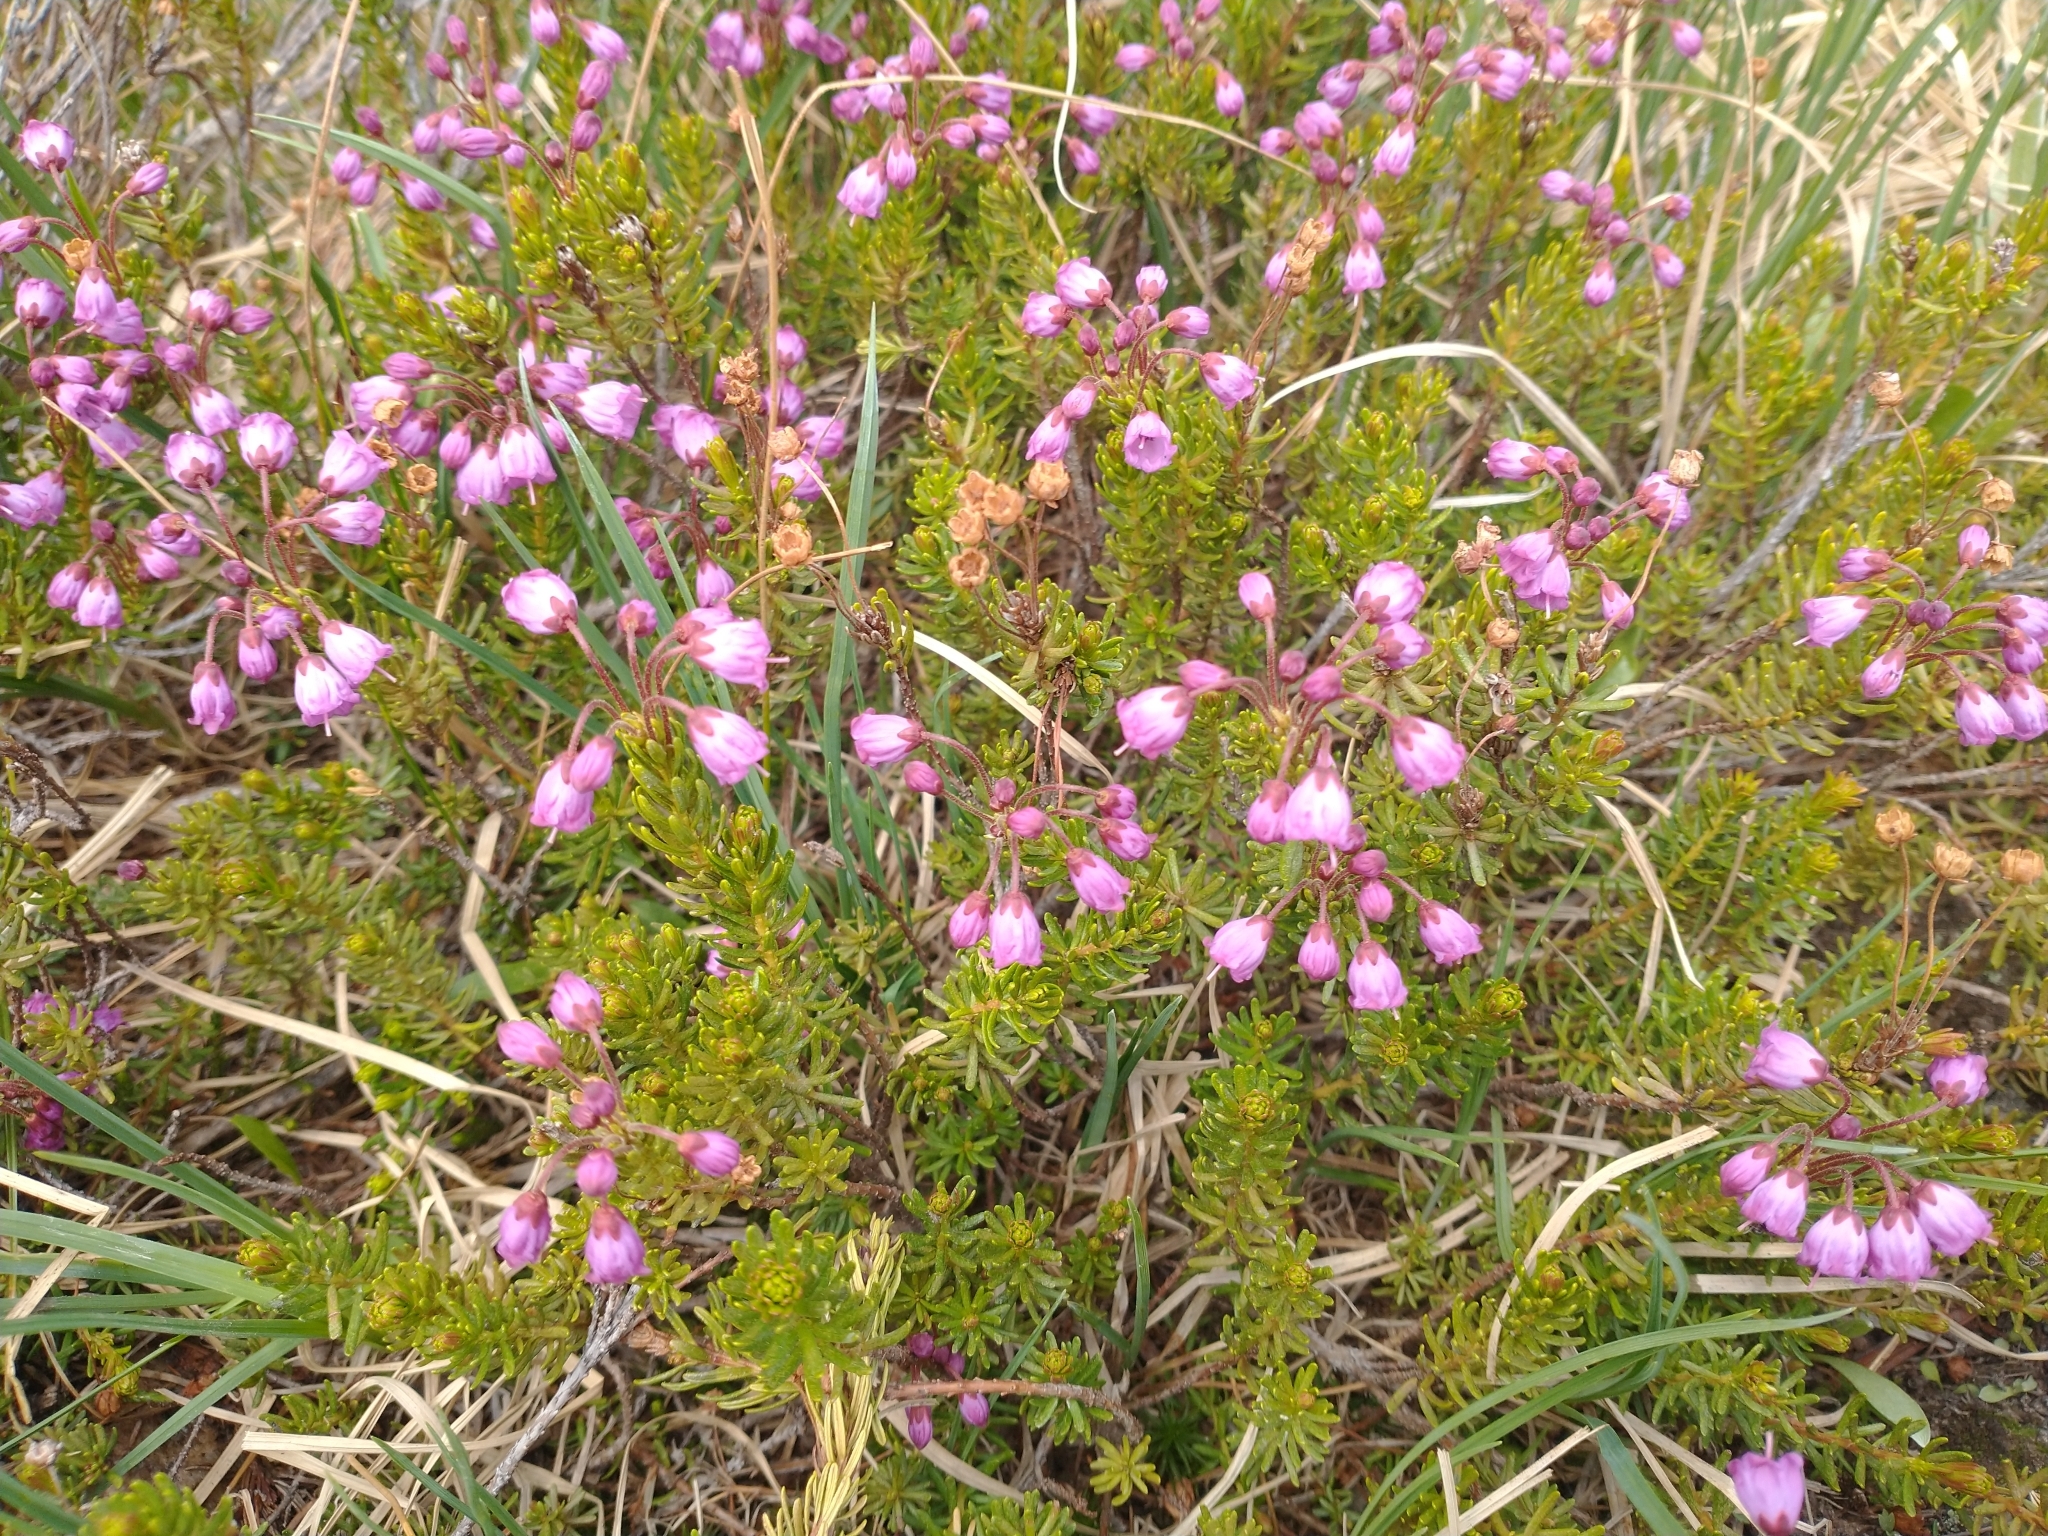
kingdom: Plantae
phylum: Tracheophyta
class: Magnoliopsida
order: Ericales
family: Ericaceae
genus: Phyllodoce
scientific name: Phyllodoce empetriformis
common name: Pink mountain heather
